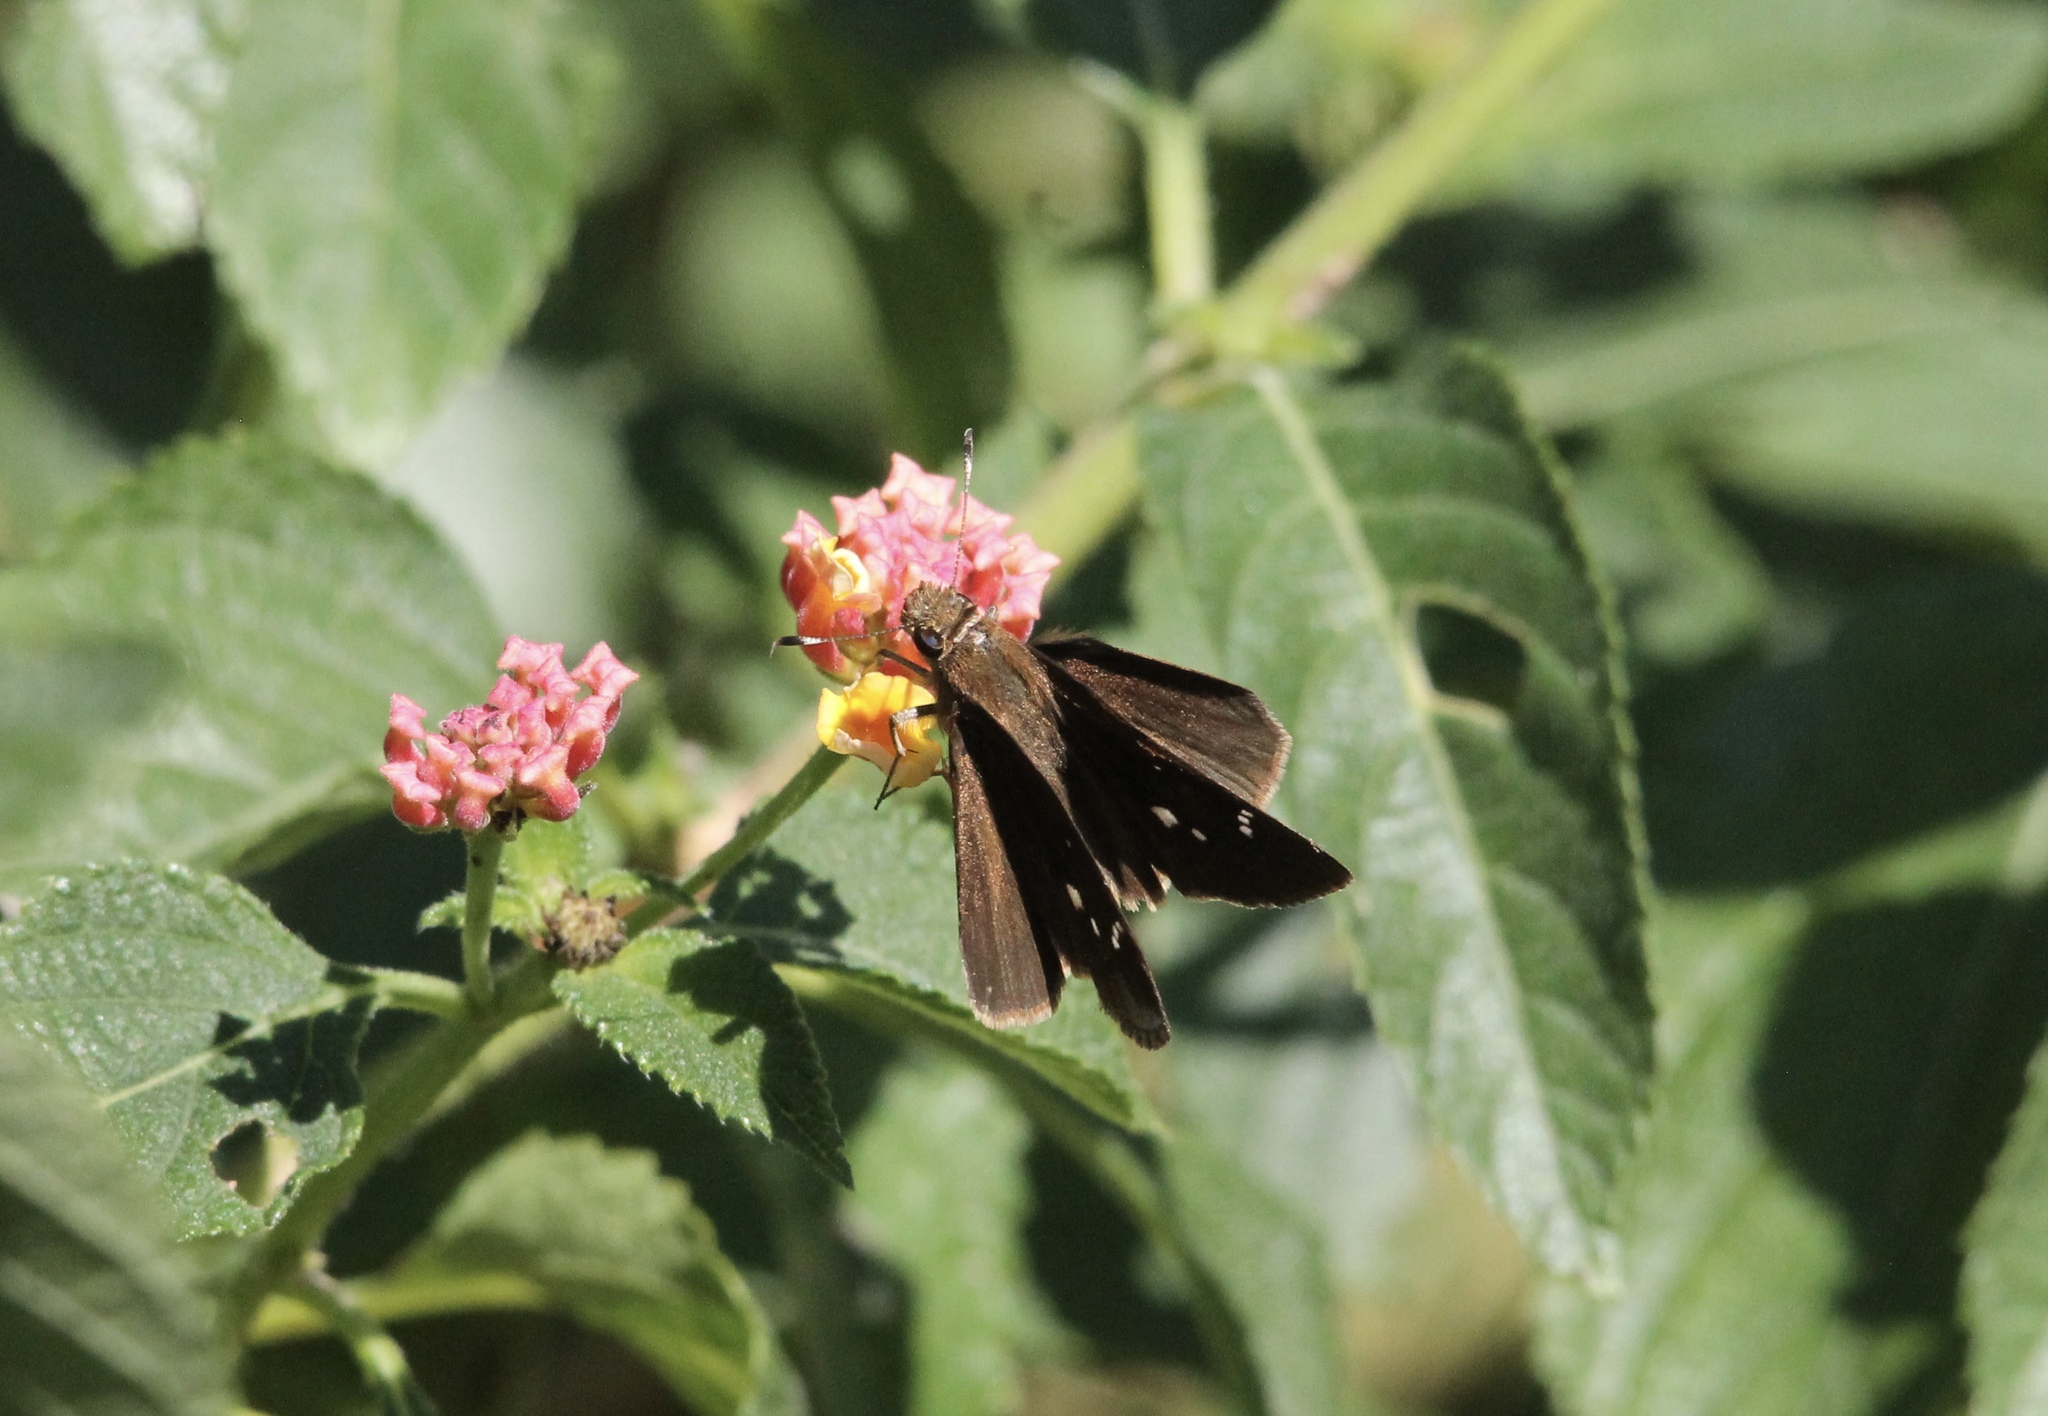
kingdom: Animalia
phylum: Arthropoda
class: Insecta
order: Lepidoptera
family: Hesperiidae
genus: Lerema
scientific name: Lerema accius
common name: Clouded skipper
